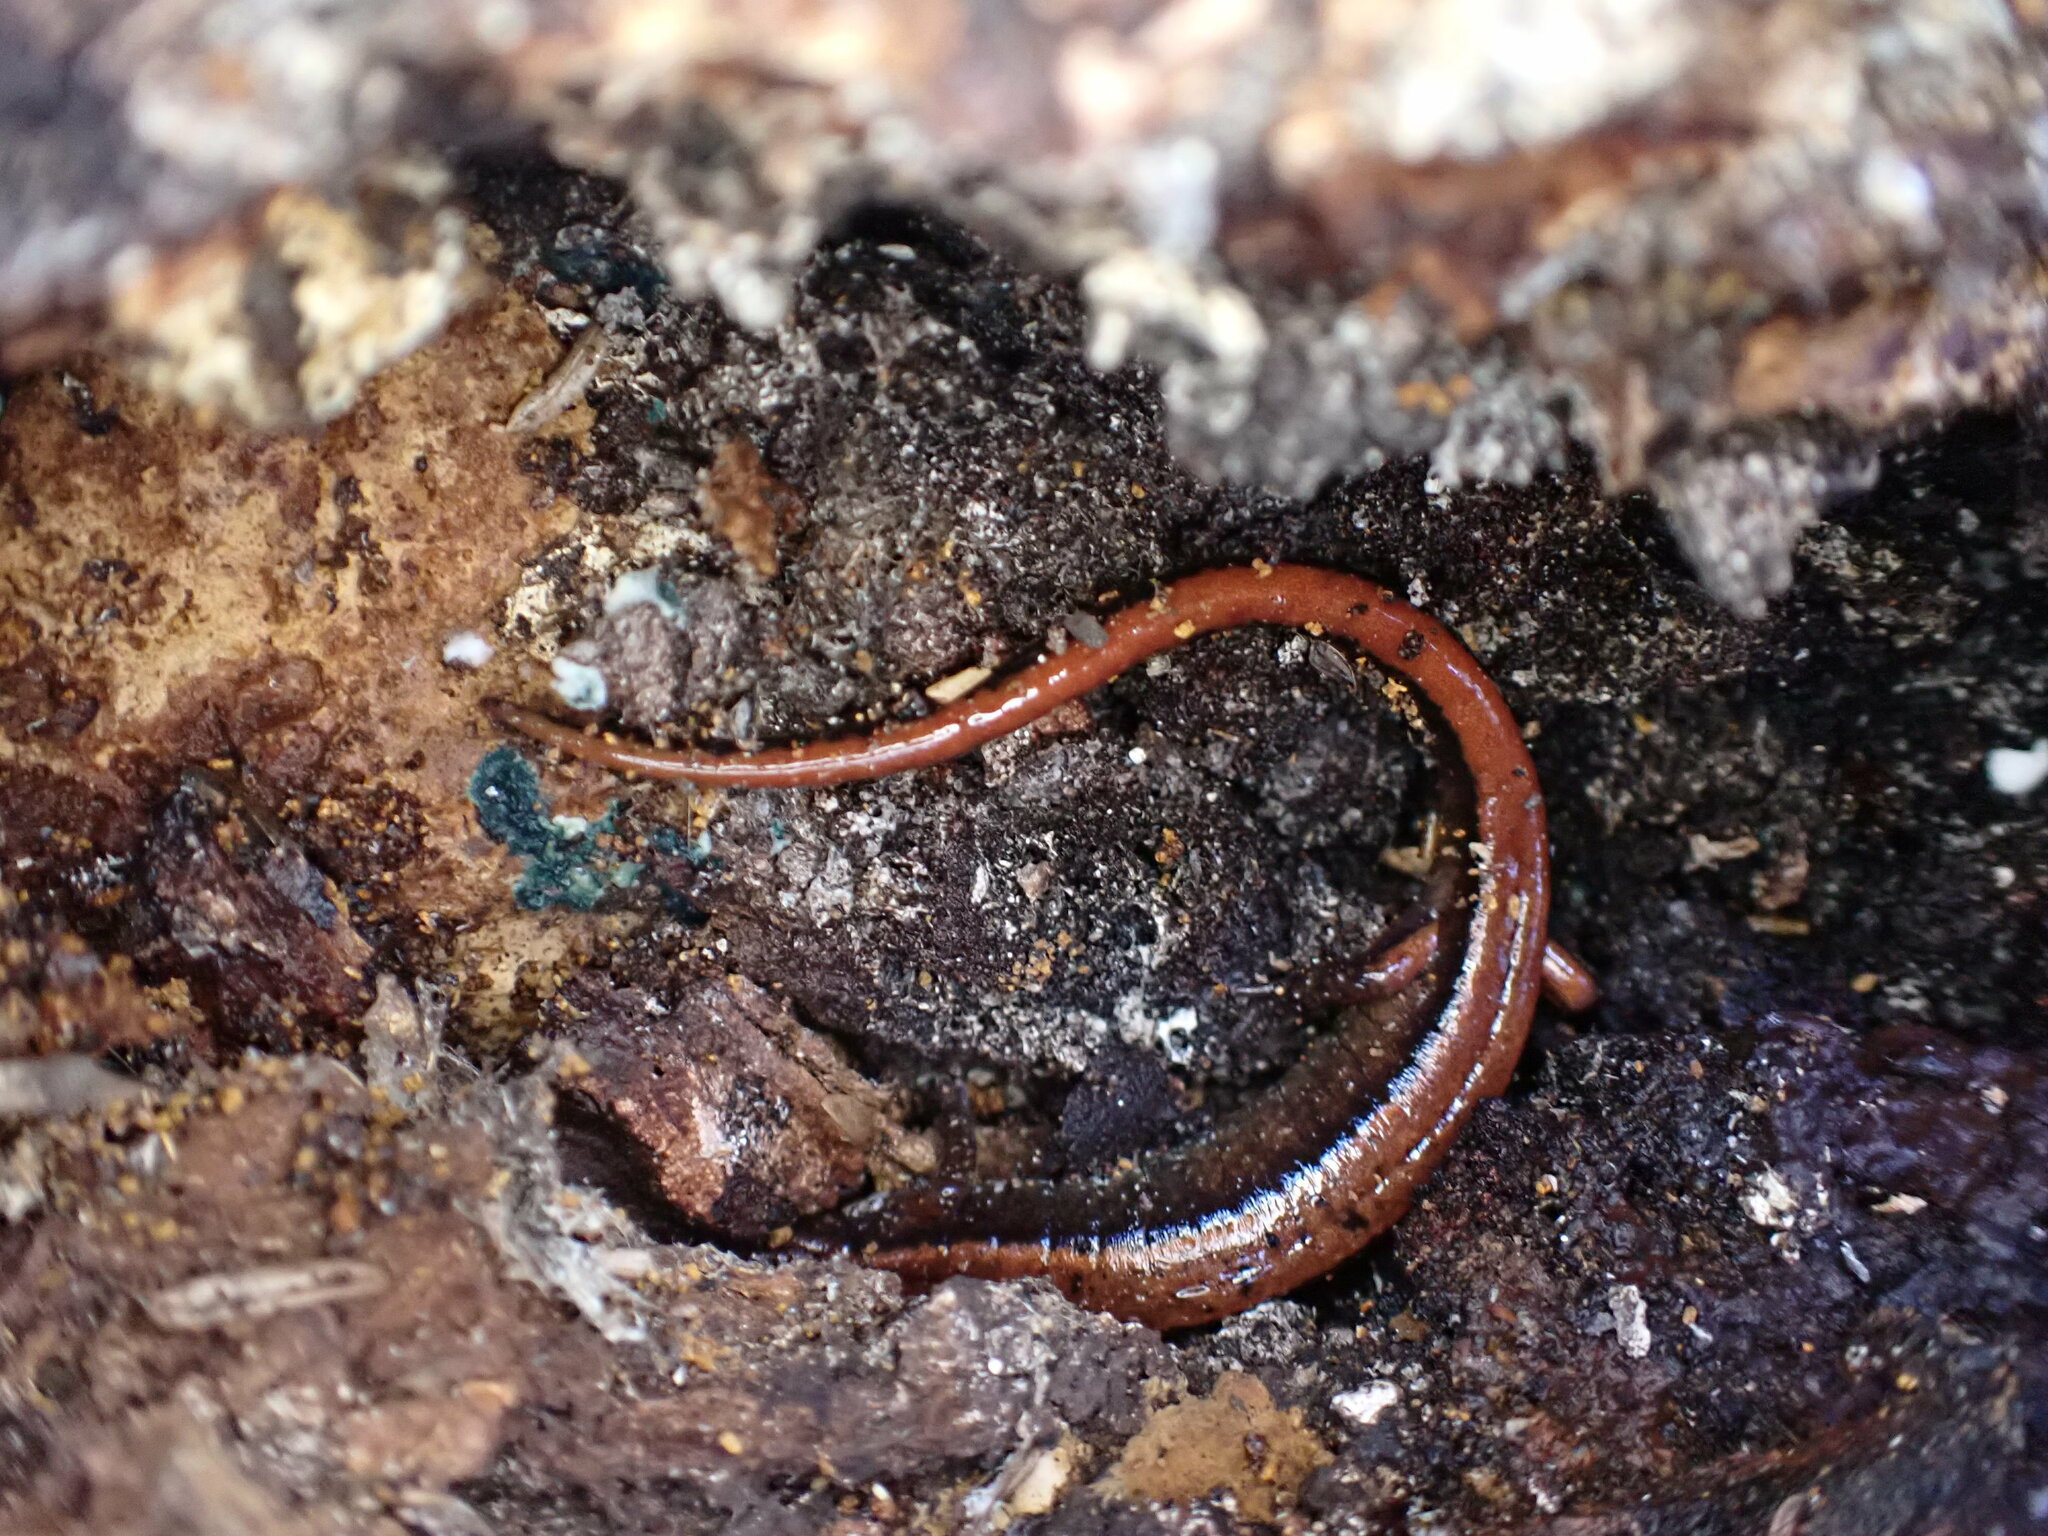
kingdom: Animalia
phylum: Chordata
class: Amphibia
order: Caudata
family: Plethodontidae
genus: Plethodon
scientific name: Plethodon vehiculum
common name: Western red-backed salamander
